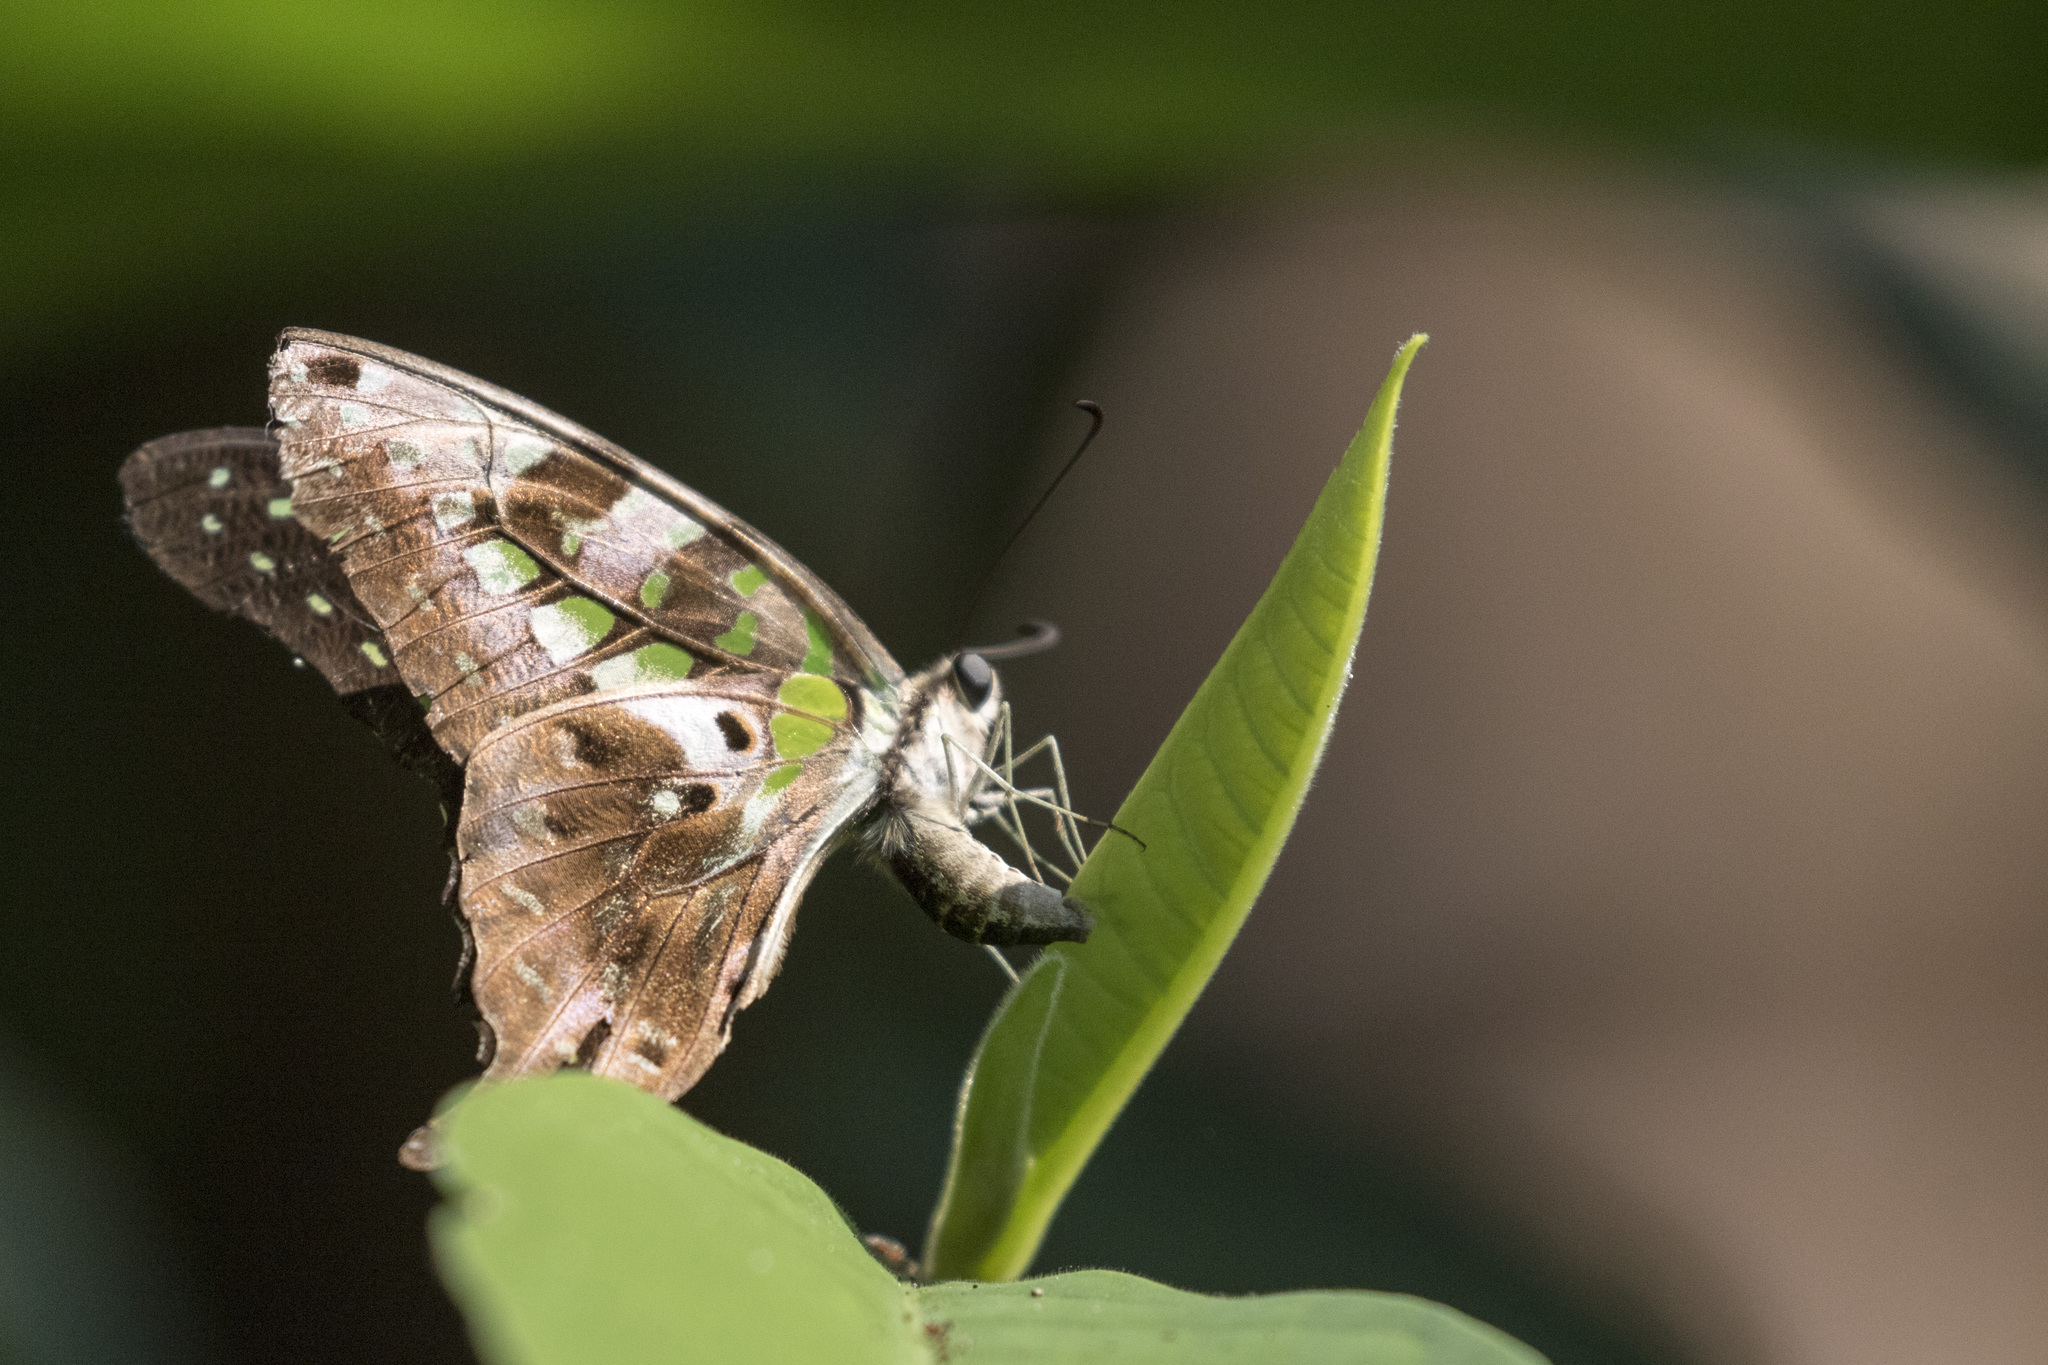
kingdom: Animalia
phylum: Arthropoda
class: Insecta
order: Lepidoptera
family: Papilionidae
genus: Graphium
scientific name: Graphium agamemnon
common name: Tailed jay
